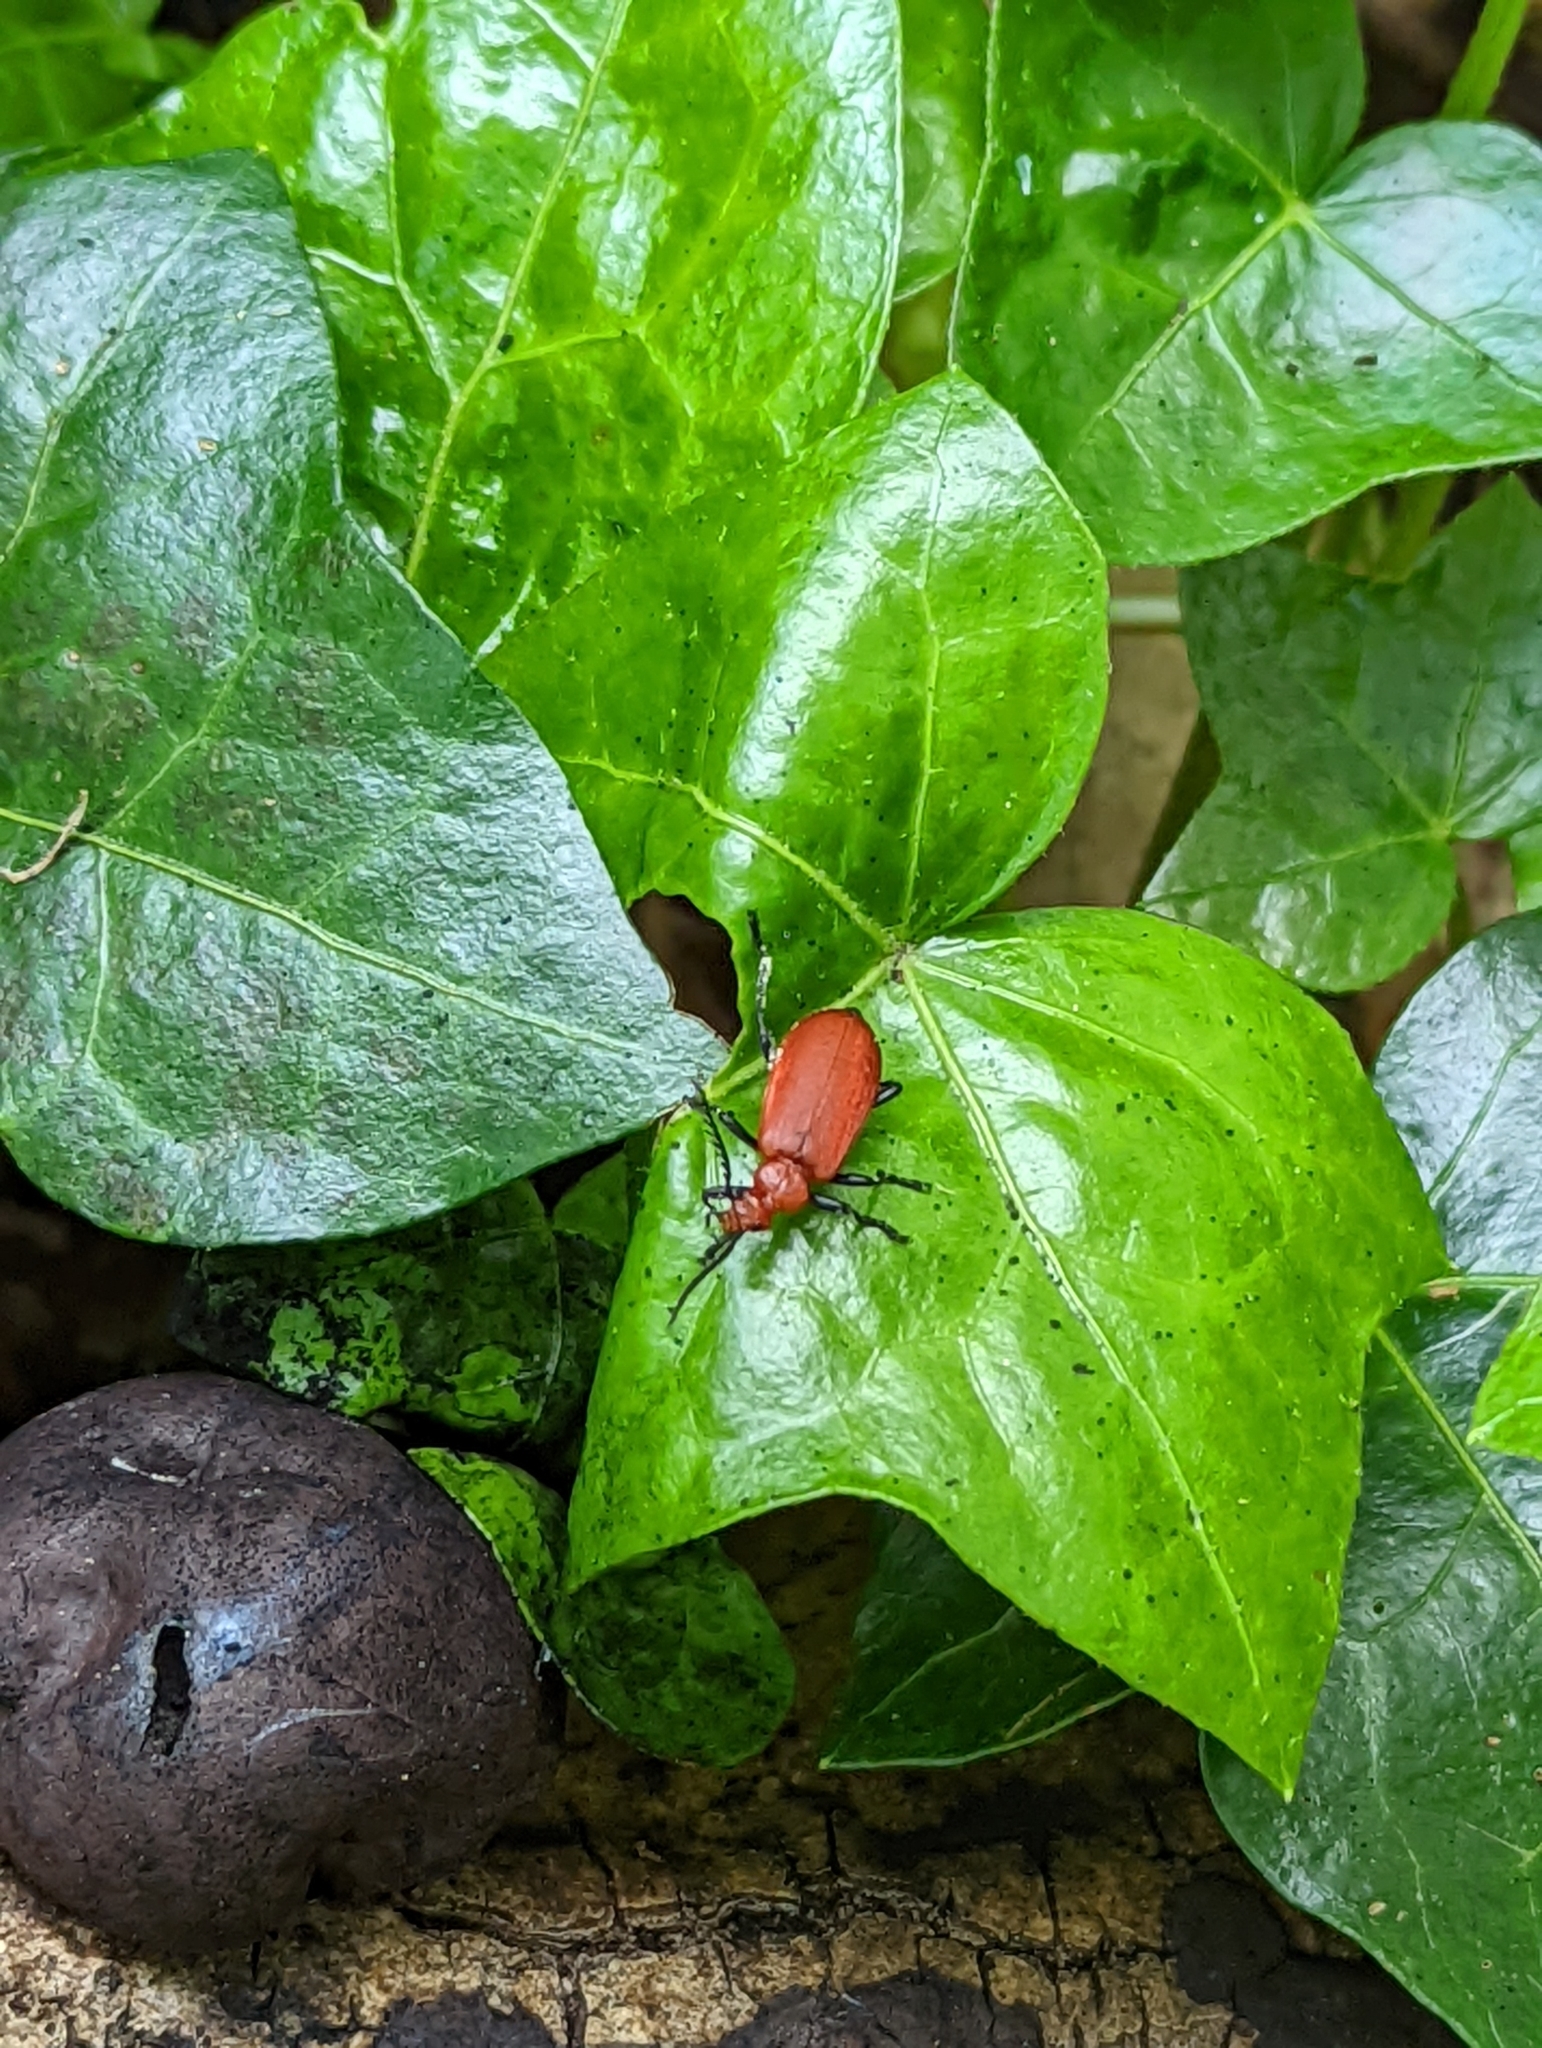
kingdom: Animalia
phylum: Arthropoda
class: Insecta
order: Coleoptera
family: Pyrochroidae
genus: Pyrochroa
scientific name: Pyrochroa serraticornis
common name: Red-headed cardinal beetle
